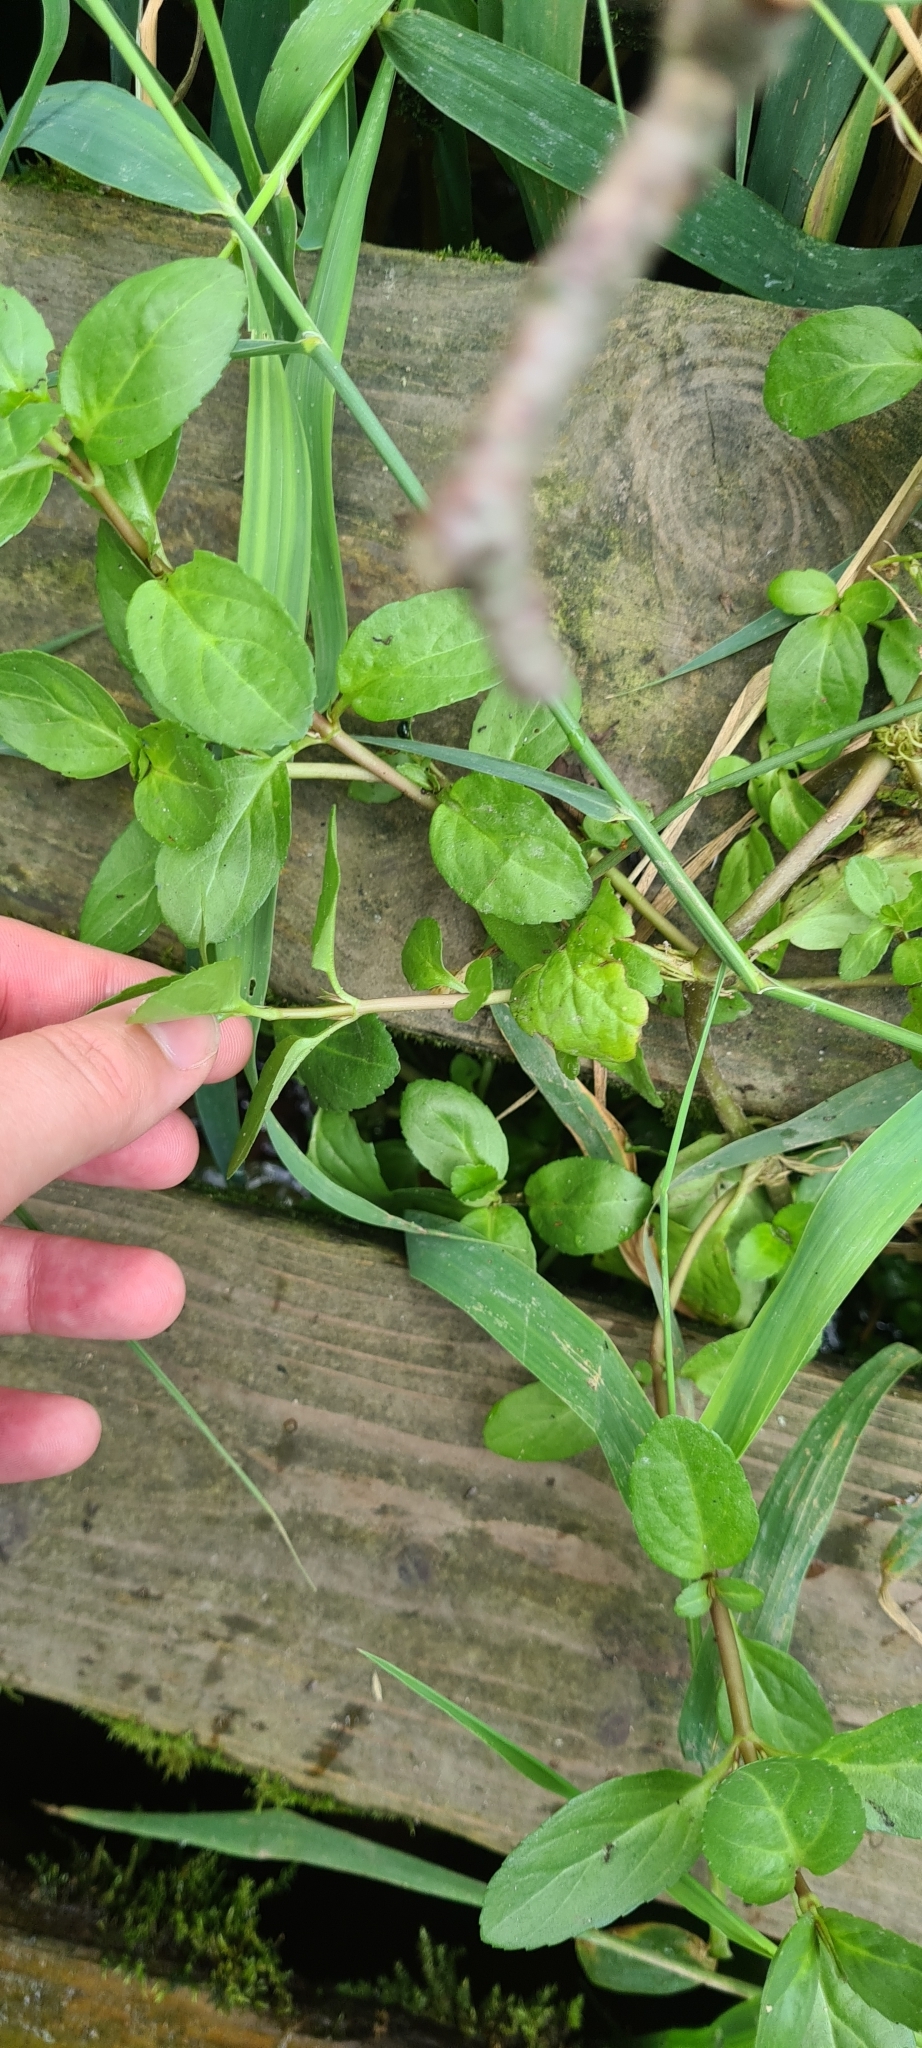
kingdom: Plantae
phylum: Tracheophyta
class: Magnoliopsida
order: Lamiales
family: Plantaginaceae
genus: Veronica
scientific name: Veronica beccabunga
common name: Brooklime
